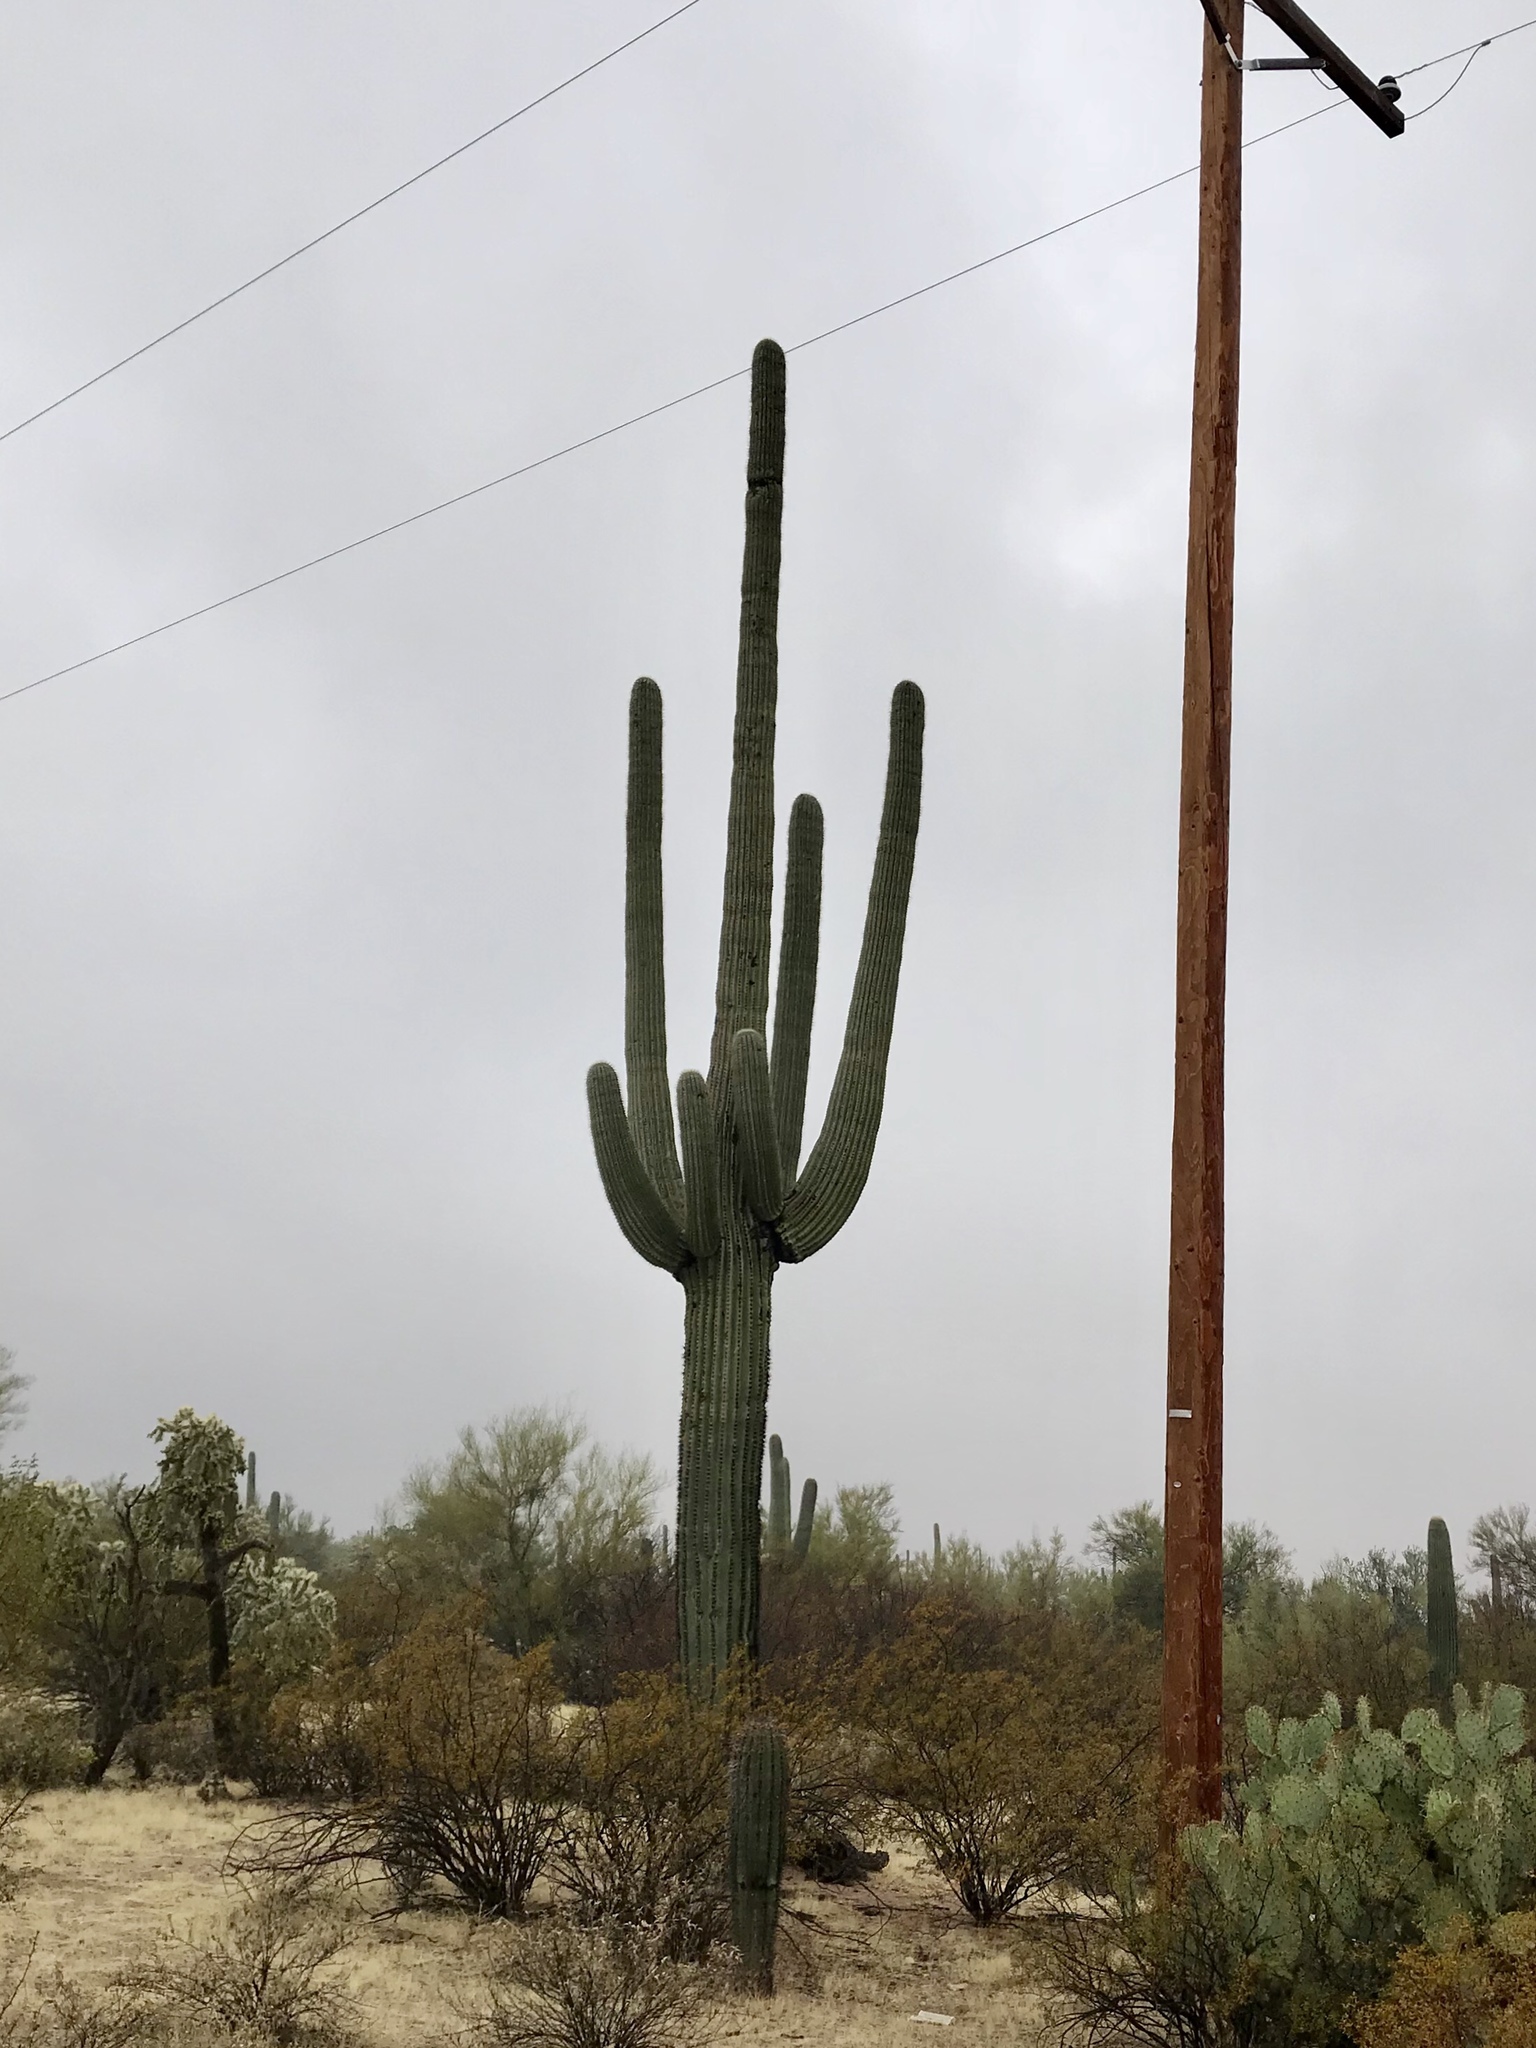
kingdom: Plantae
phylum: Tracheophyta
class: Magnoliopsida
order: Caryophyllales
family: Cactaceae
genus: Carnegiea
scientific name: Carnegiea gigantea
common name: Saguaro
